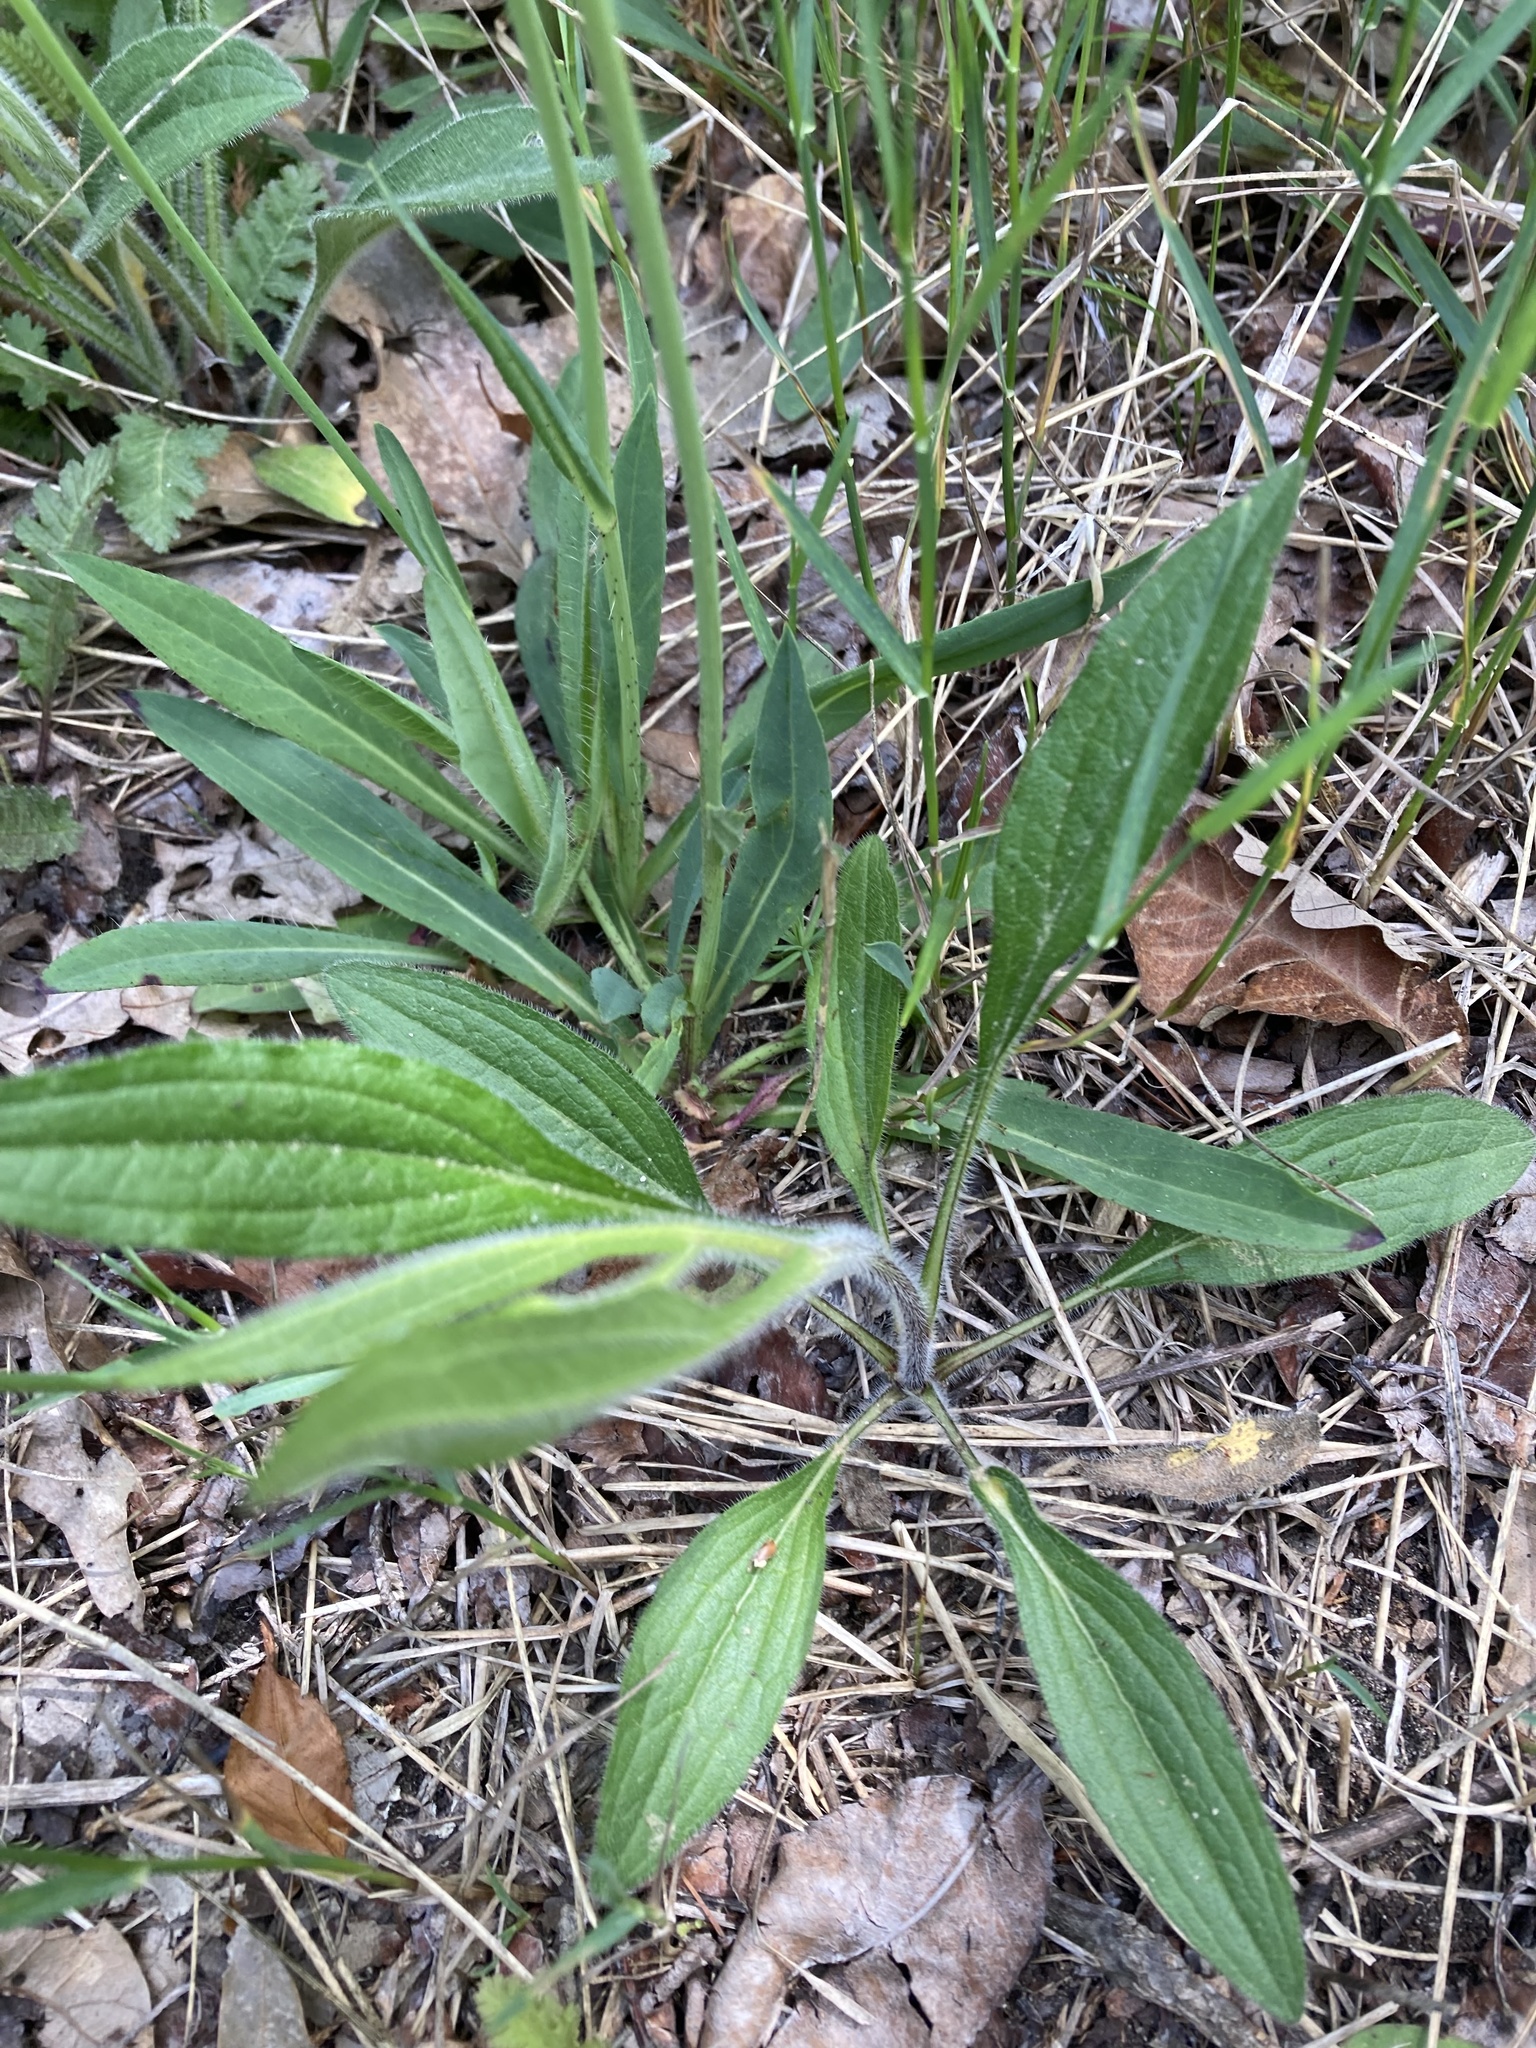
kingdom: Plantae
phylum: Tracheophyta
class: Magnoliopsida
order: Asterales
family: Asteraceae
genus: Pilosella
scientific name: Pilosella piloselloides
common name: Glaucous king-devil
